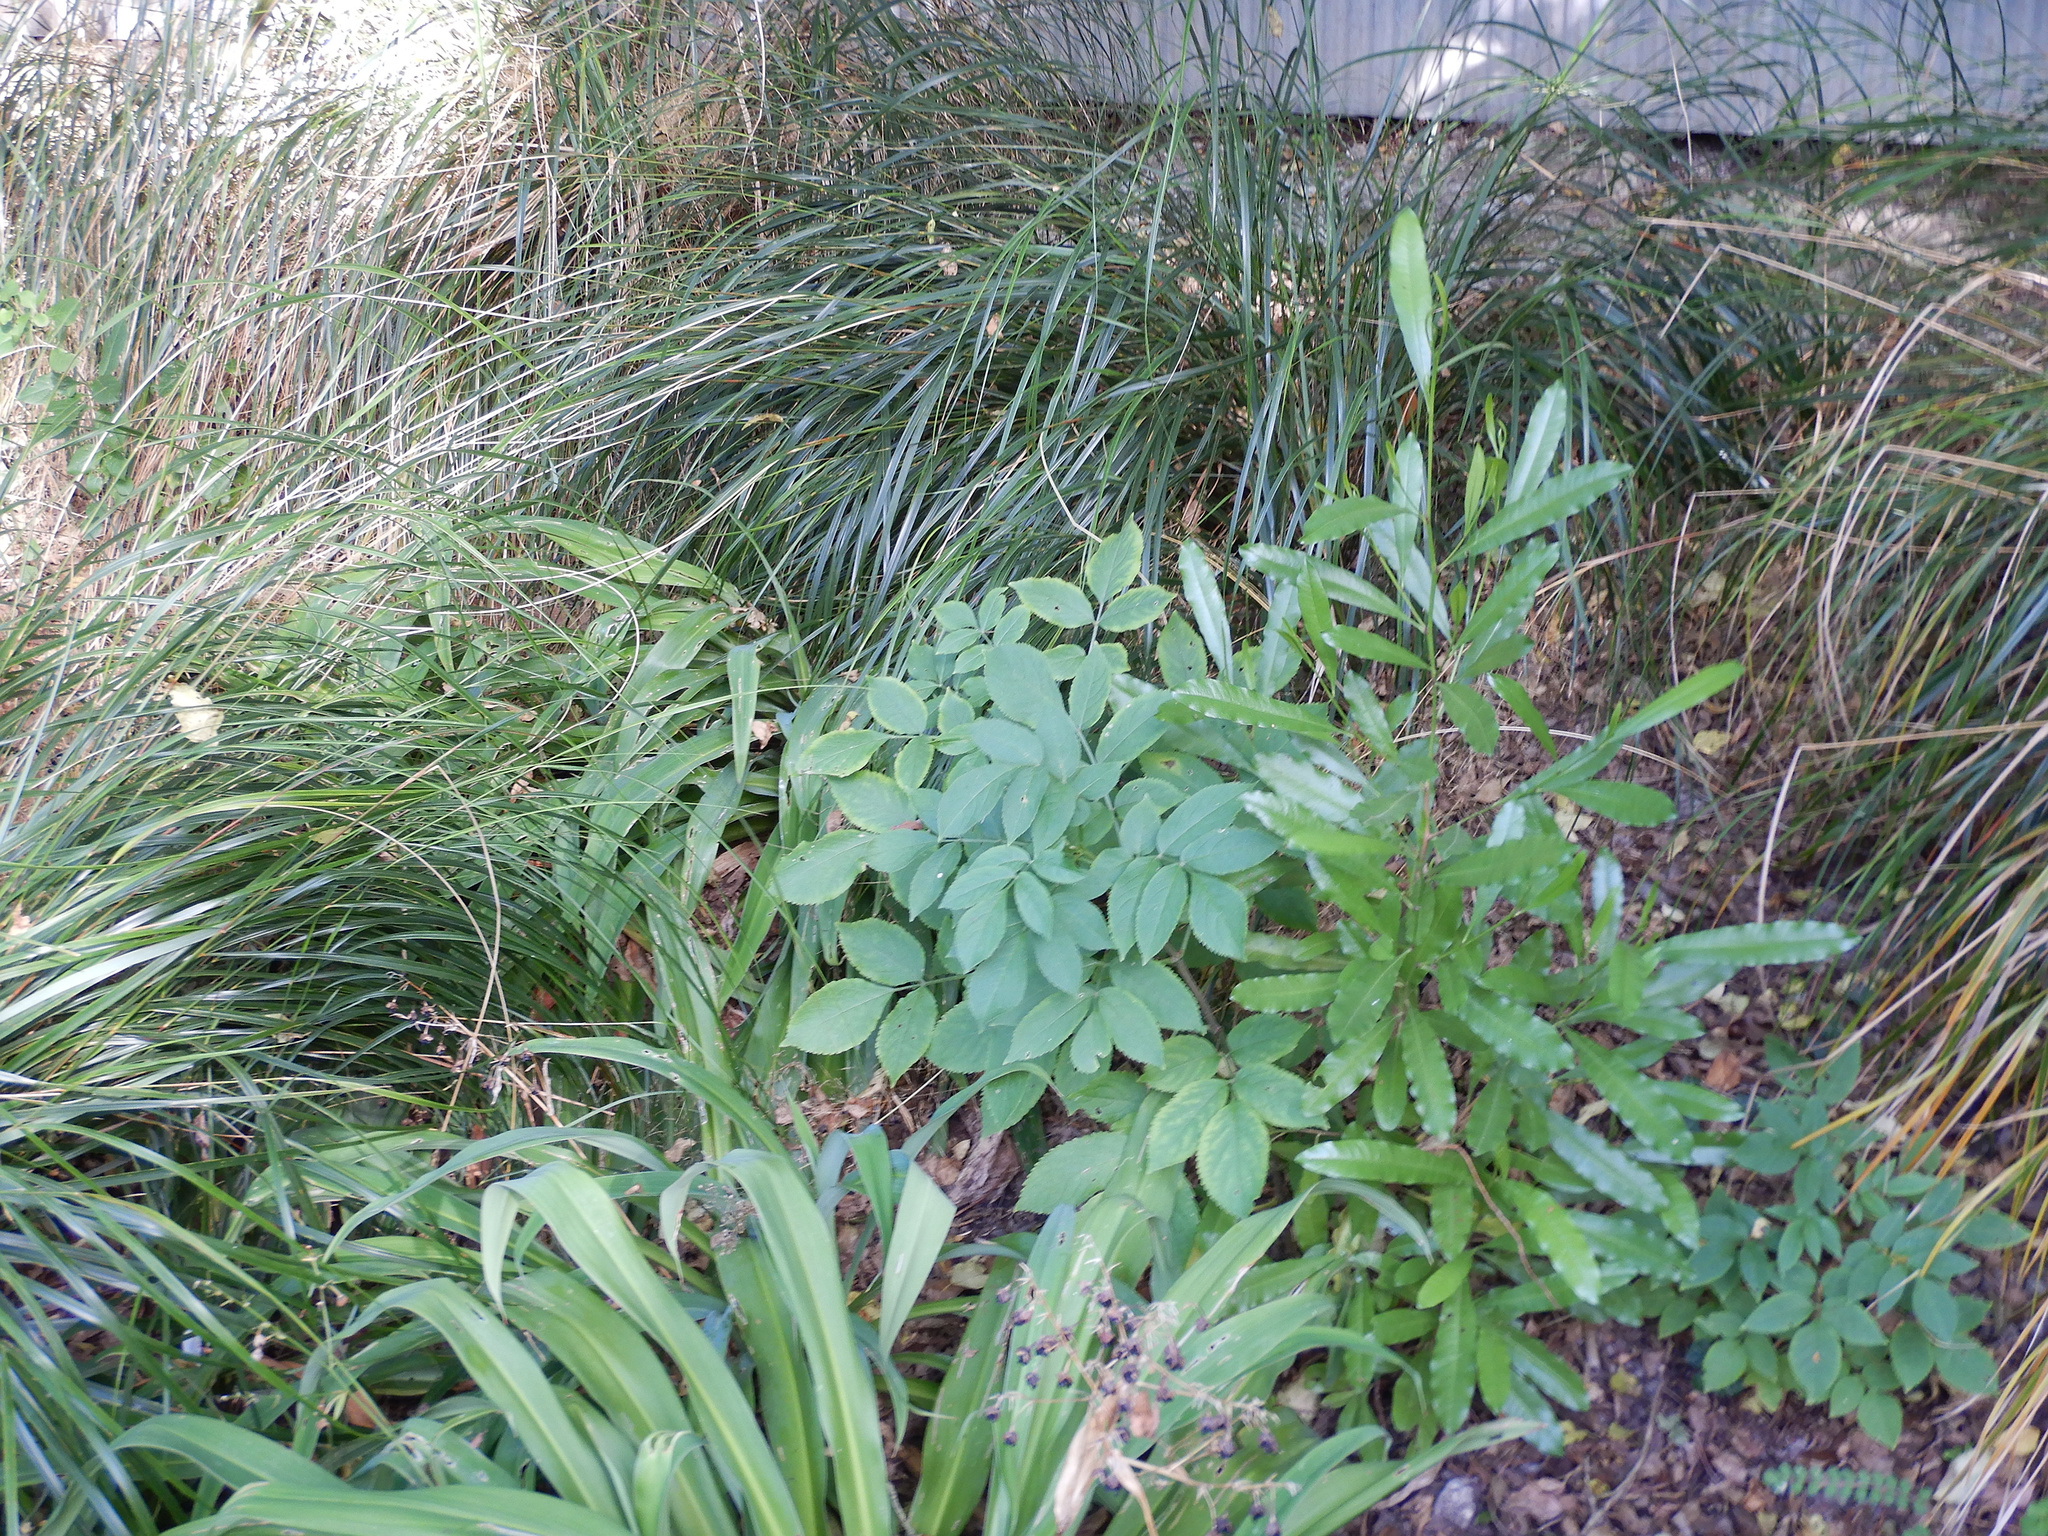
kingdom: Plantae
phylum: Tracheophyta
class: Magnoliopsida
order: Sapindales
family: Sapindaceae
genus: Dodonaea
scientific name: Dodonaea viscosa
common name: Hopbush
